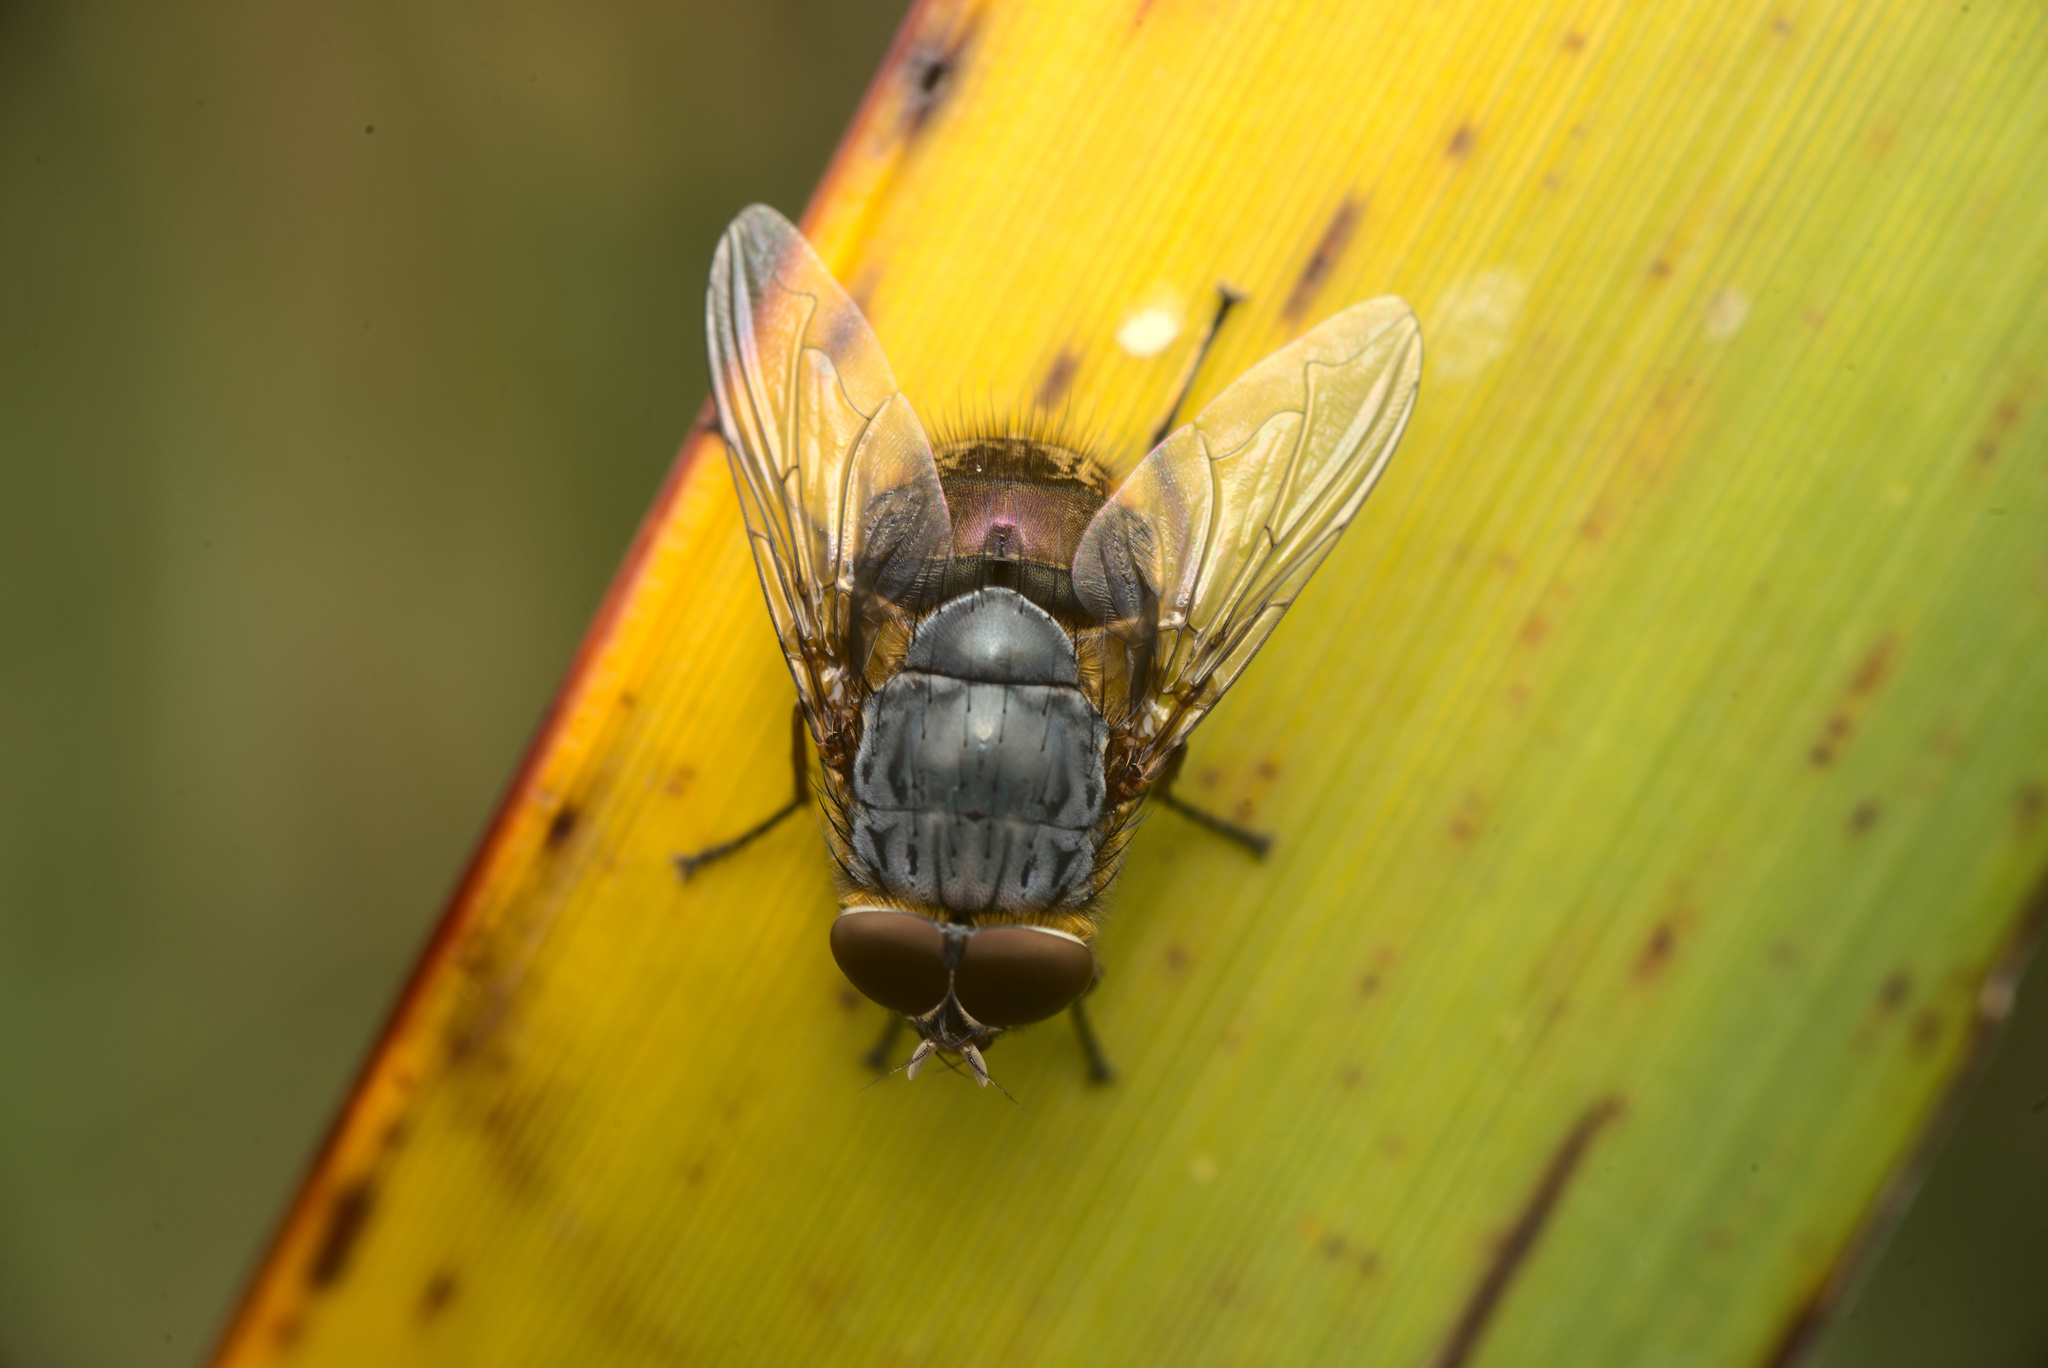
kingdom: Animalia
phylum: Arthropoda
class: Insecta
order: Diptera
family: Calliphoridae
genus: Calliphora
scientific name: Calliphora stygia
